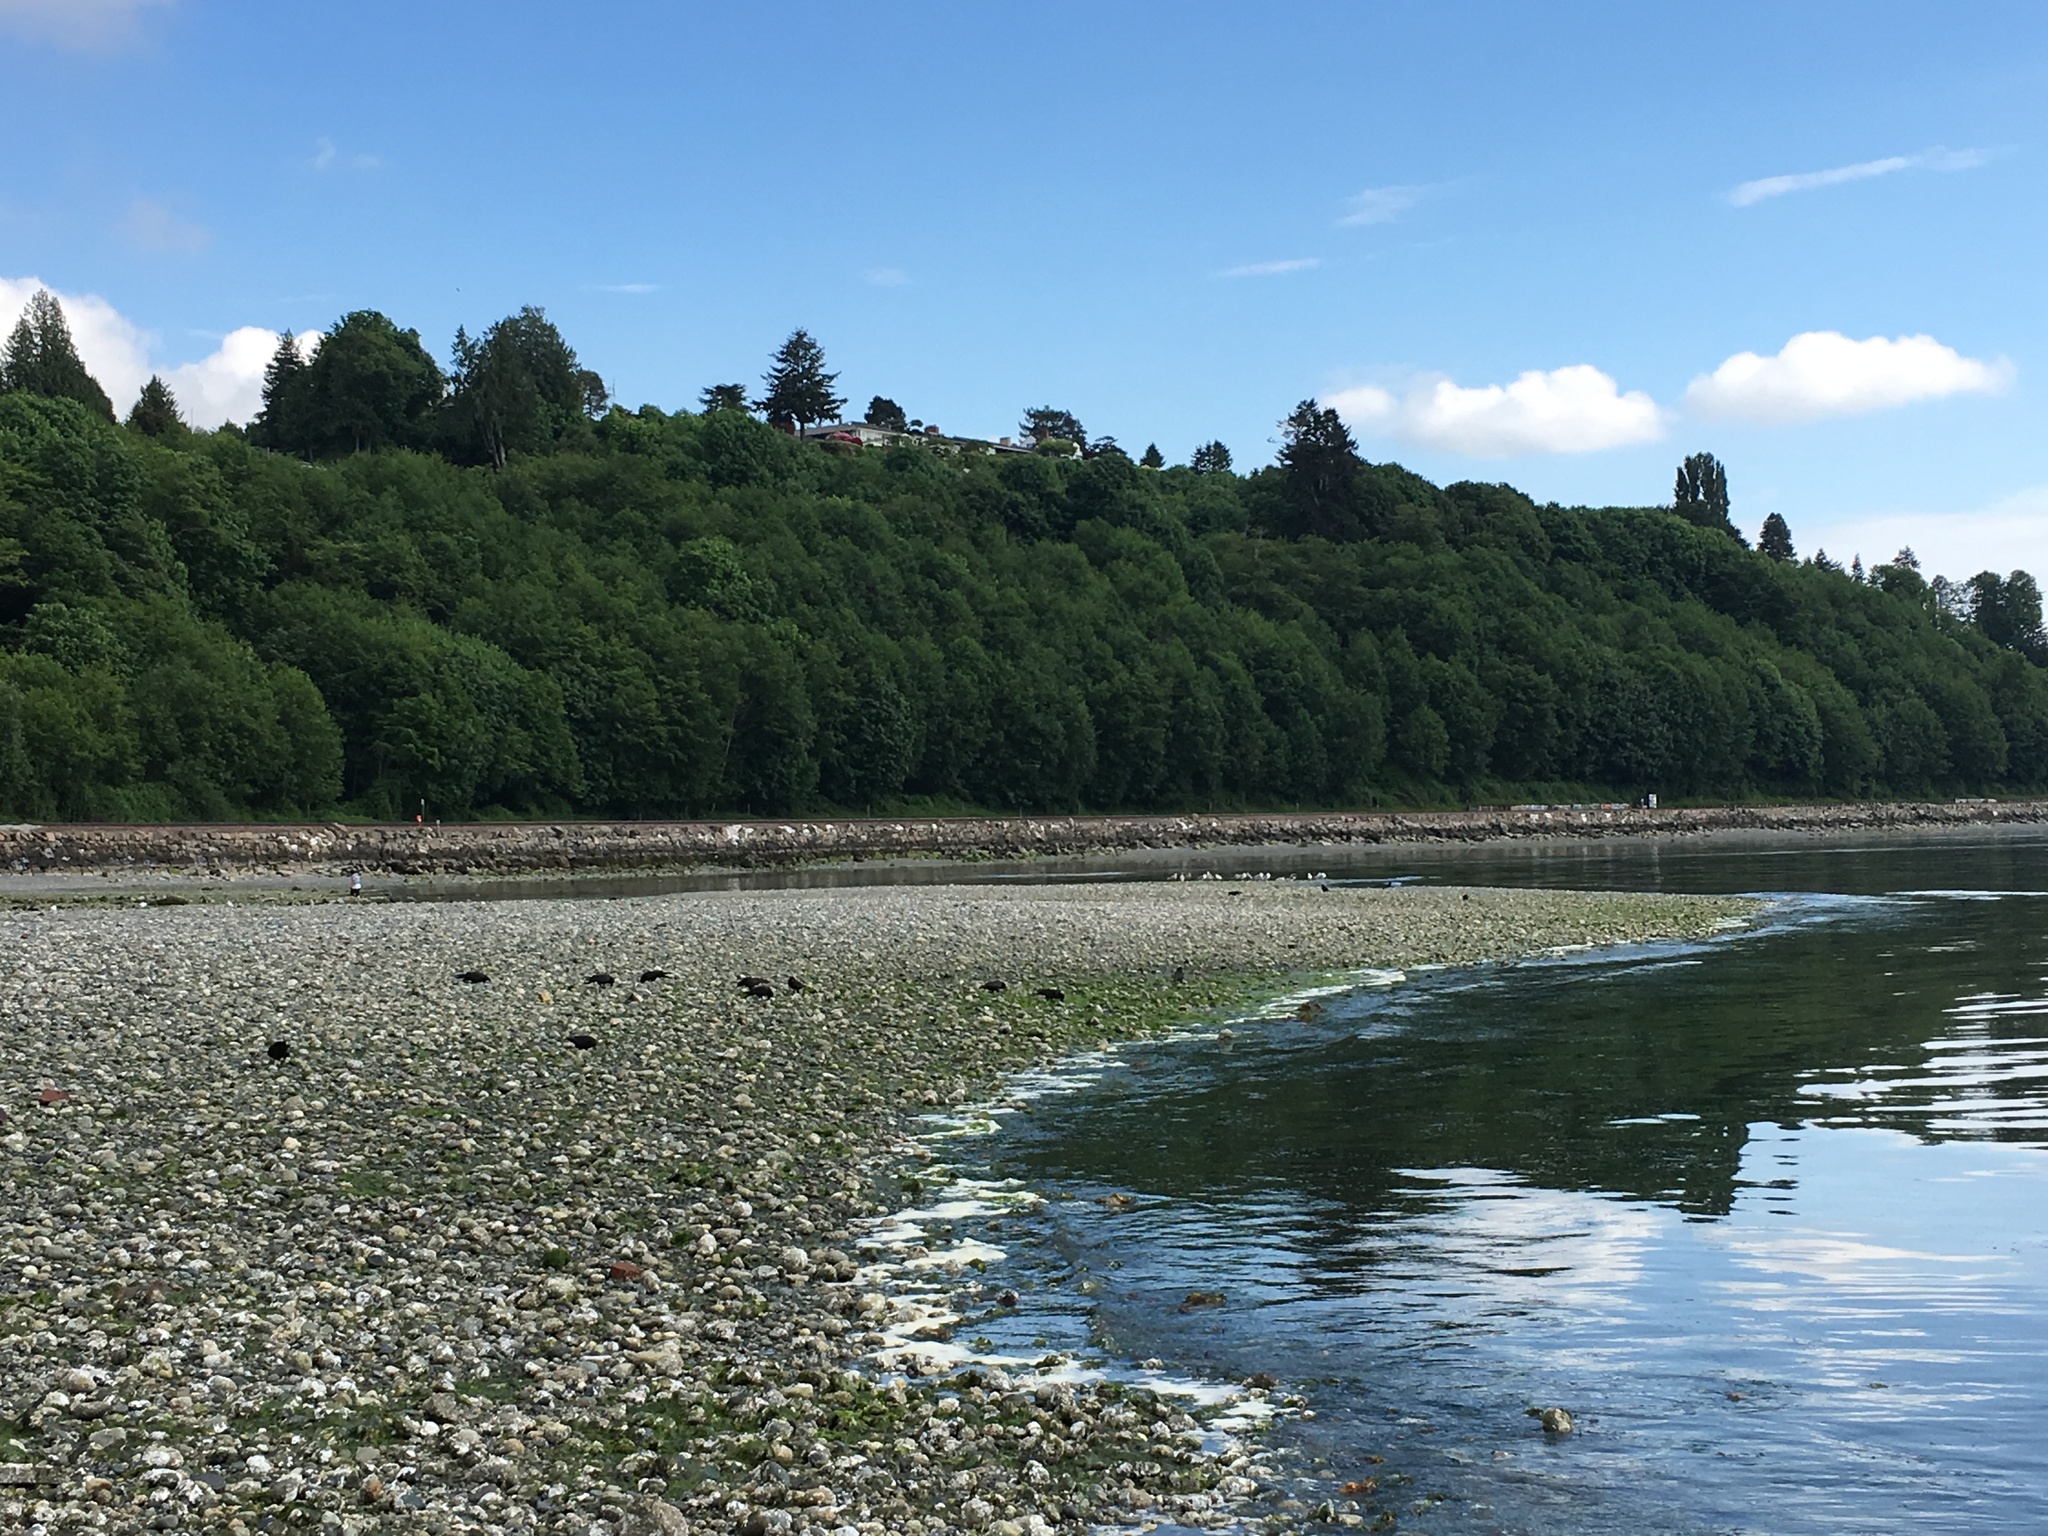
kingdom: Animalia
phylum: Chordata
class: Aves
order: Passeriformes
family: Corvidae
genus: Corvus
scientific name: Corvus brachyrhynchos
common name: American crow
